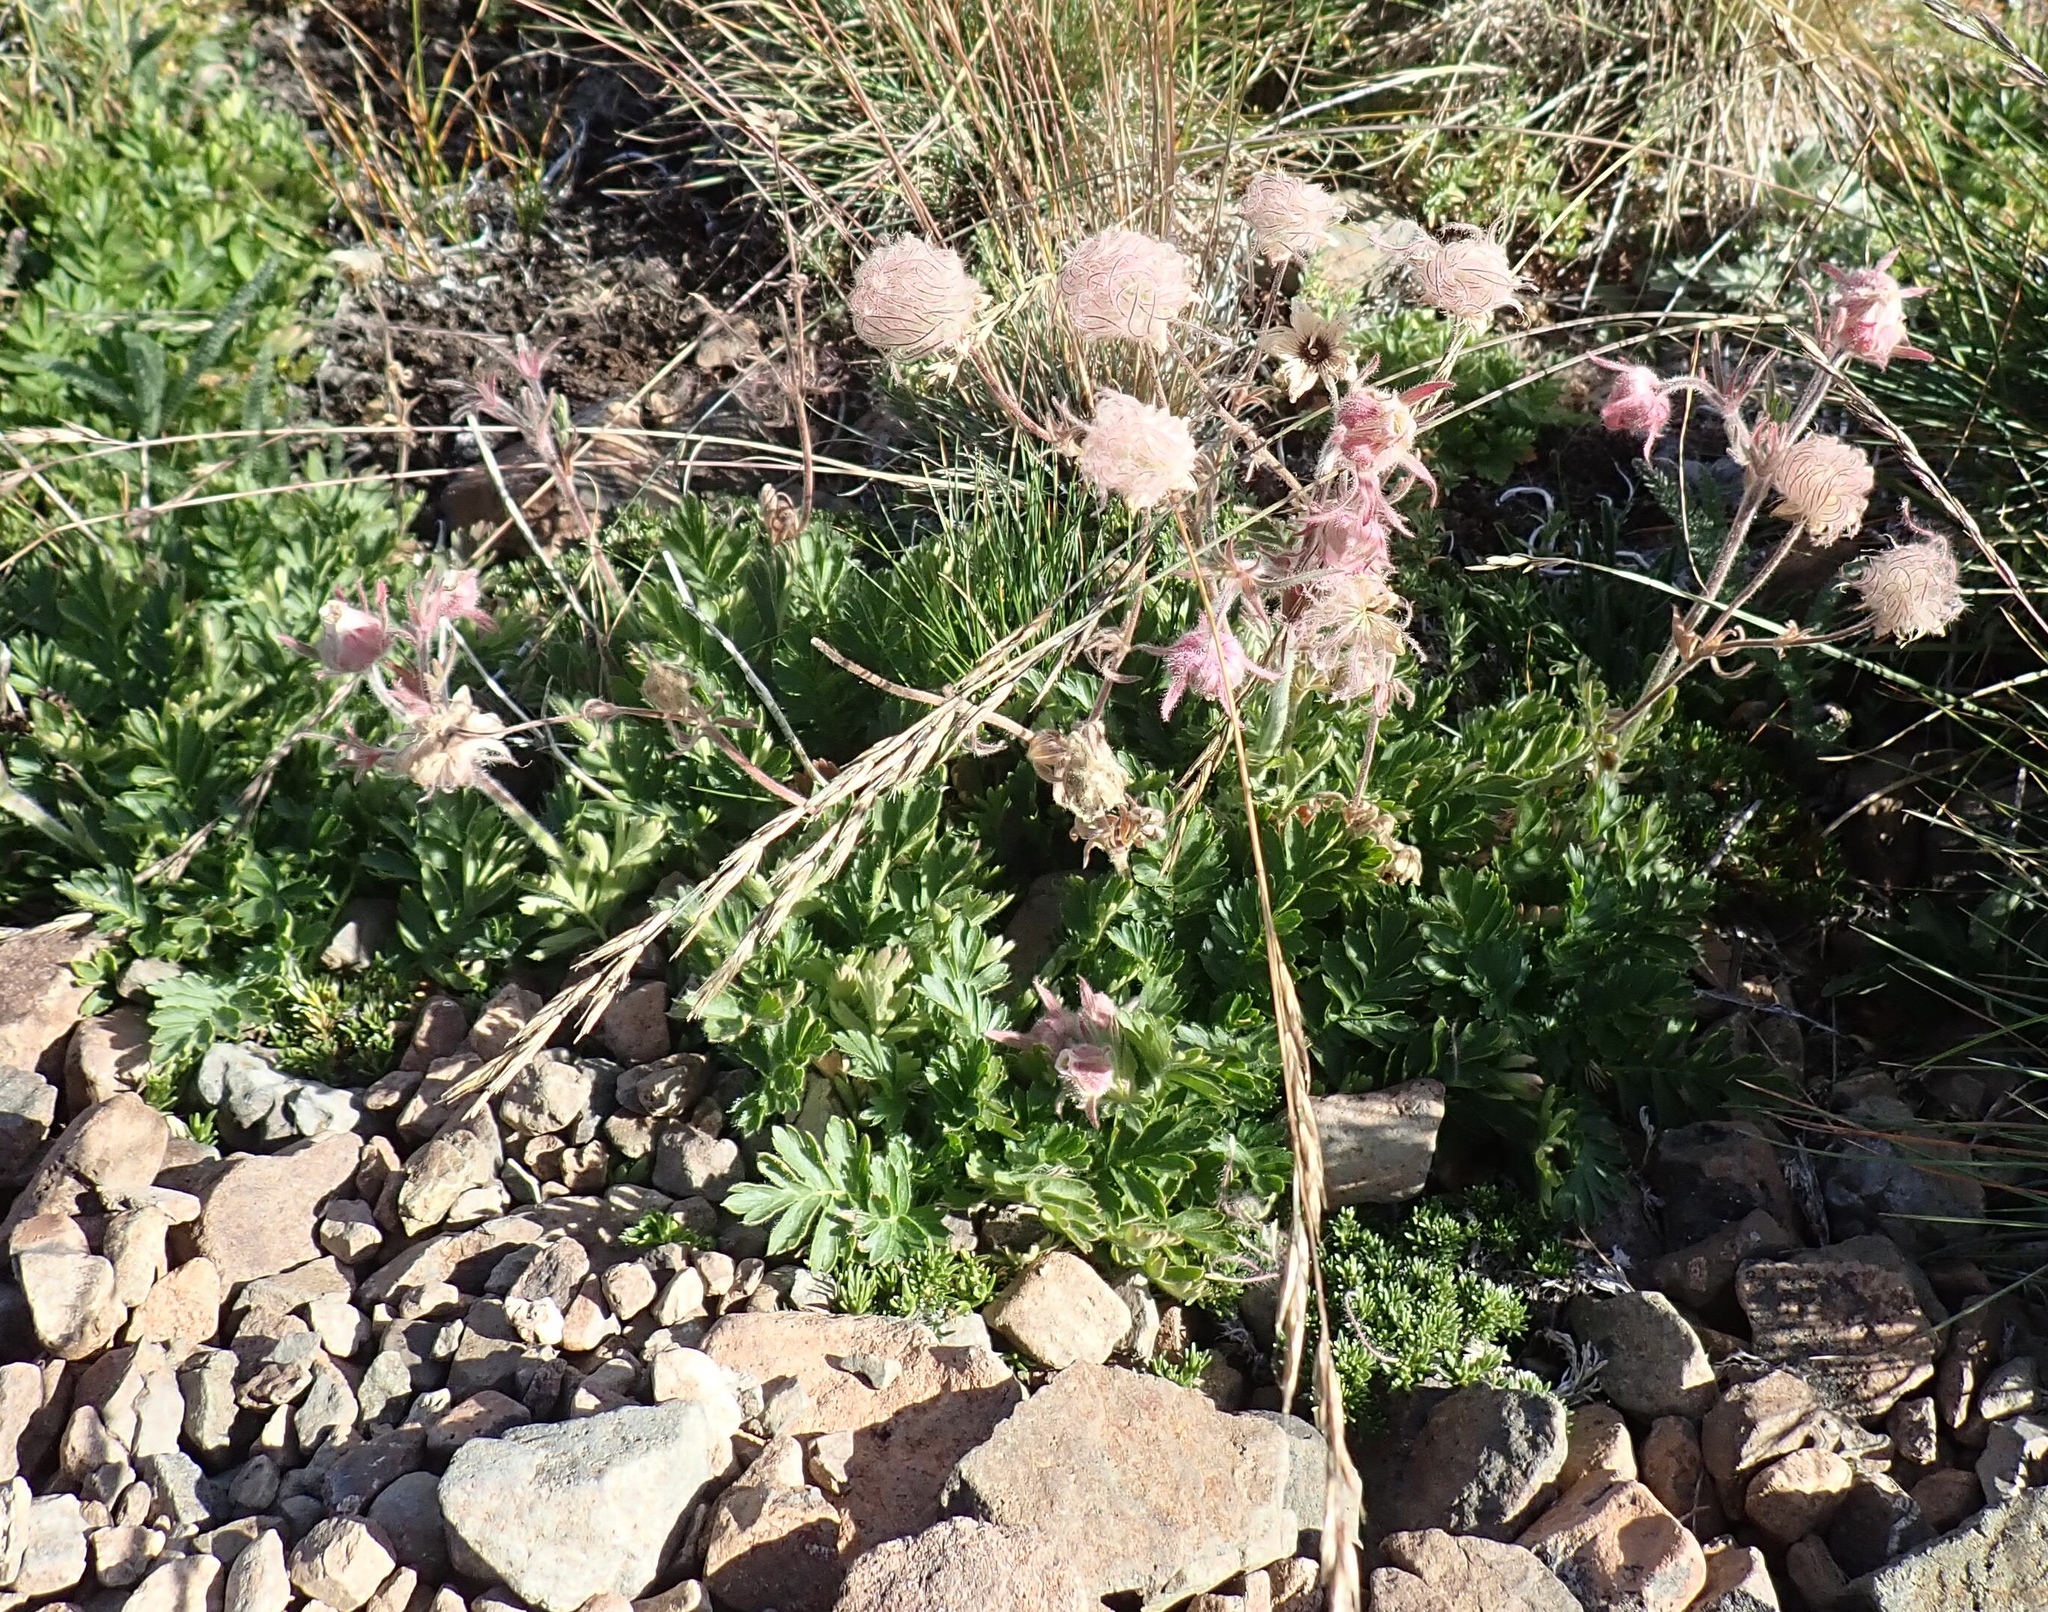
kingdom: Plantae
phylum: Tracheophyta
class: Magnoliopsida
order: Rosales
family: Rosaceae
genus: Geum
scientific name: Geum triflorum
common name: Old man's whiskers
